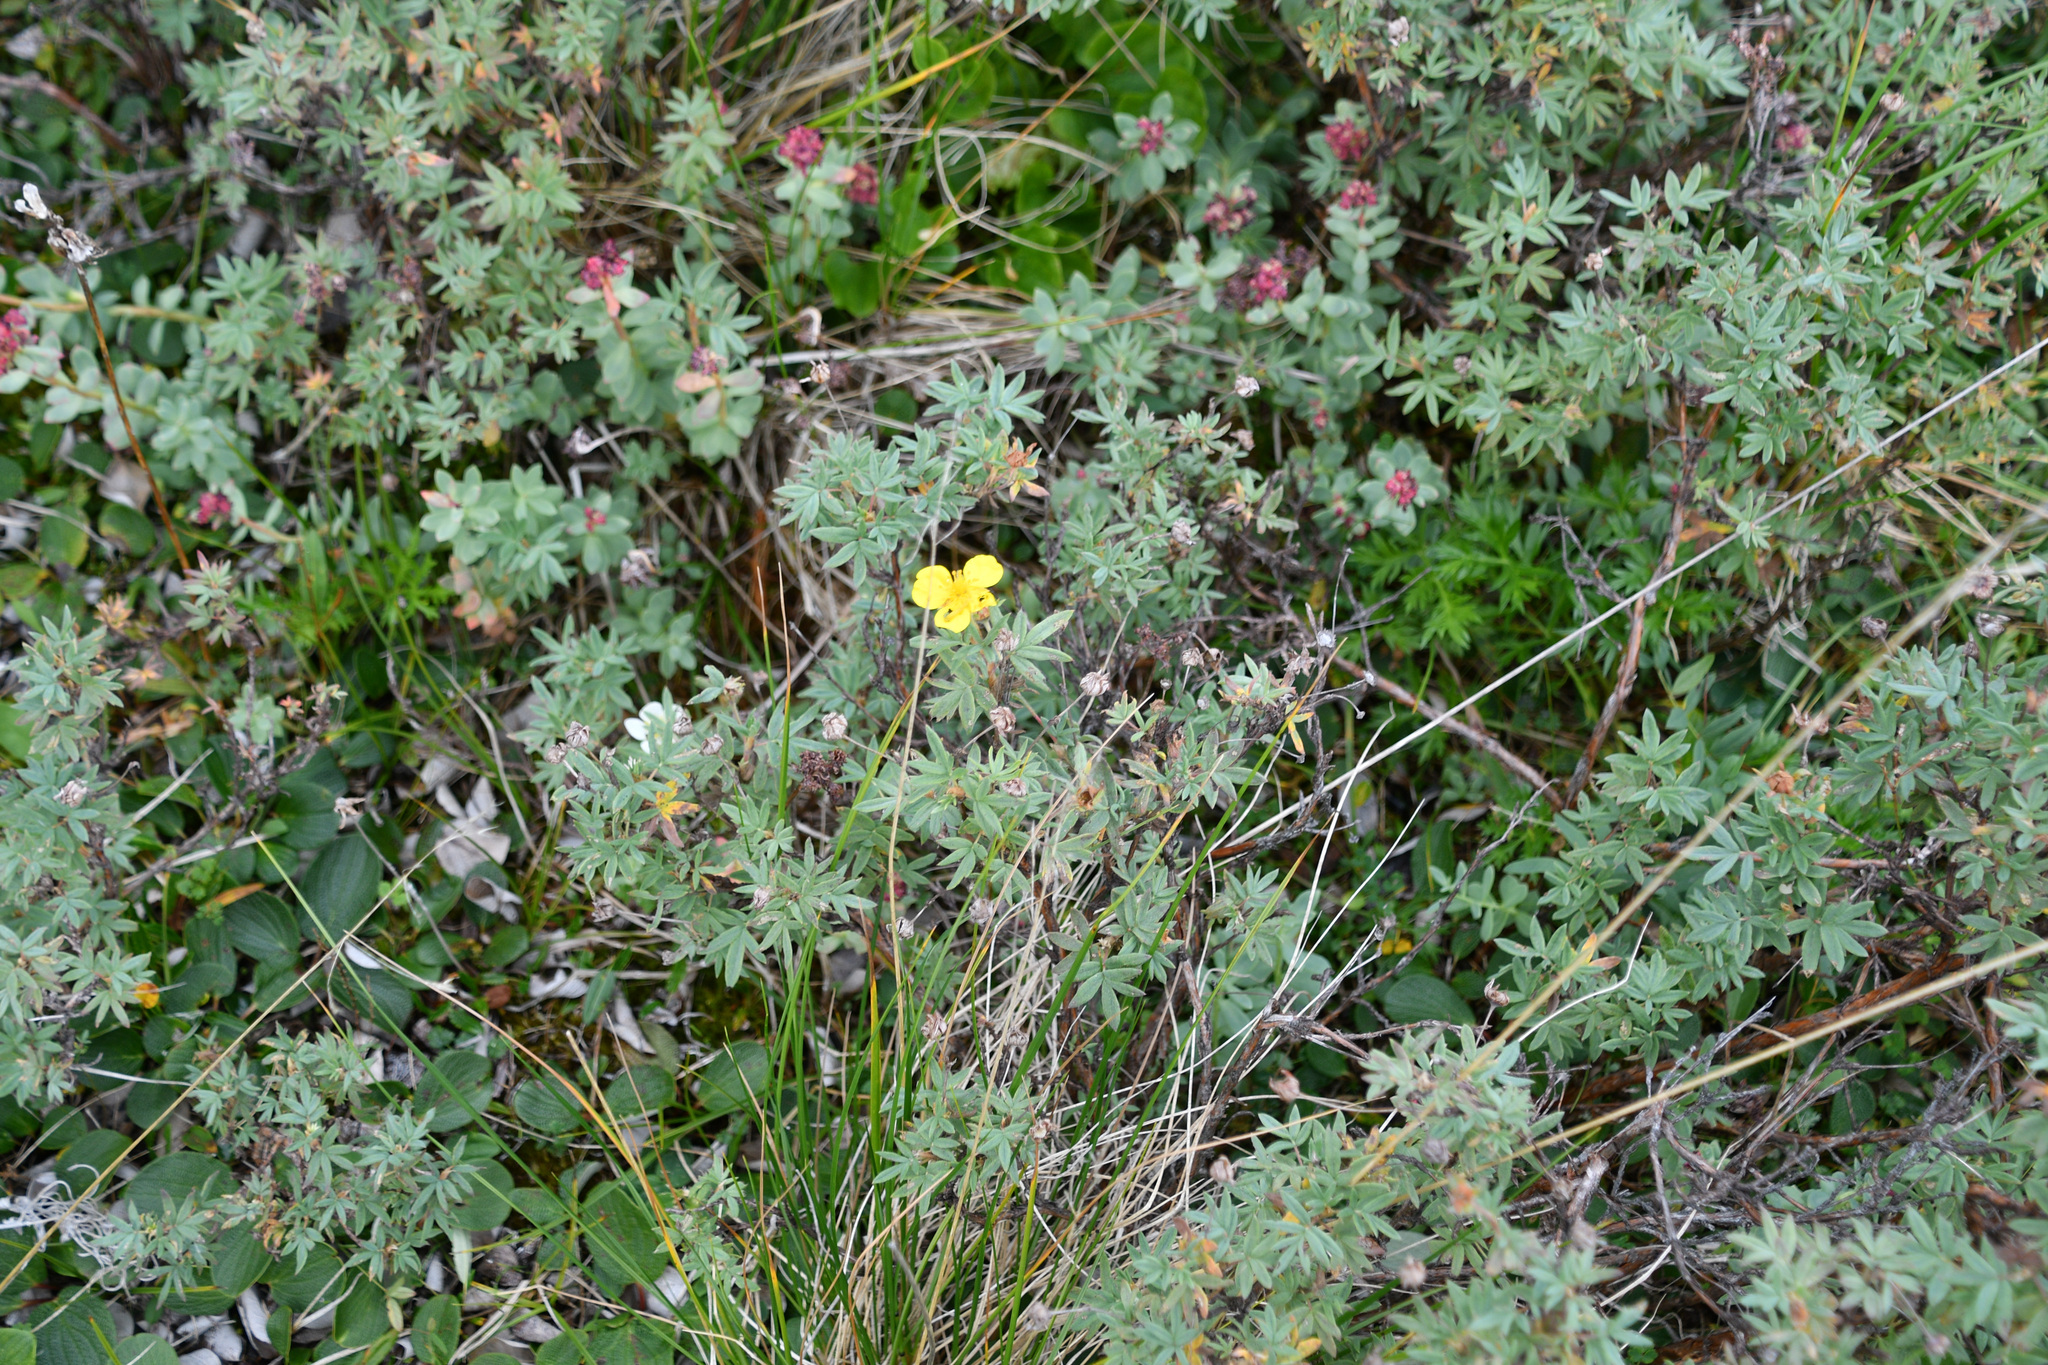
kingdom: Plantae
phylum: Tracheophyta
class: Magnoliopsida
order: Rosales
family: Rosaceae
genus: Dasiphora
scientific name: Dasiphora fruticosa
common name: Shrubby cinquefoil
